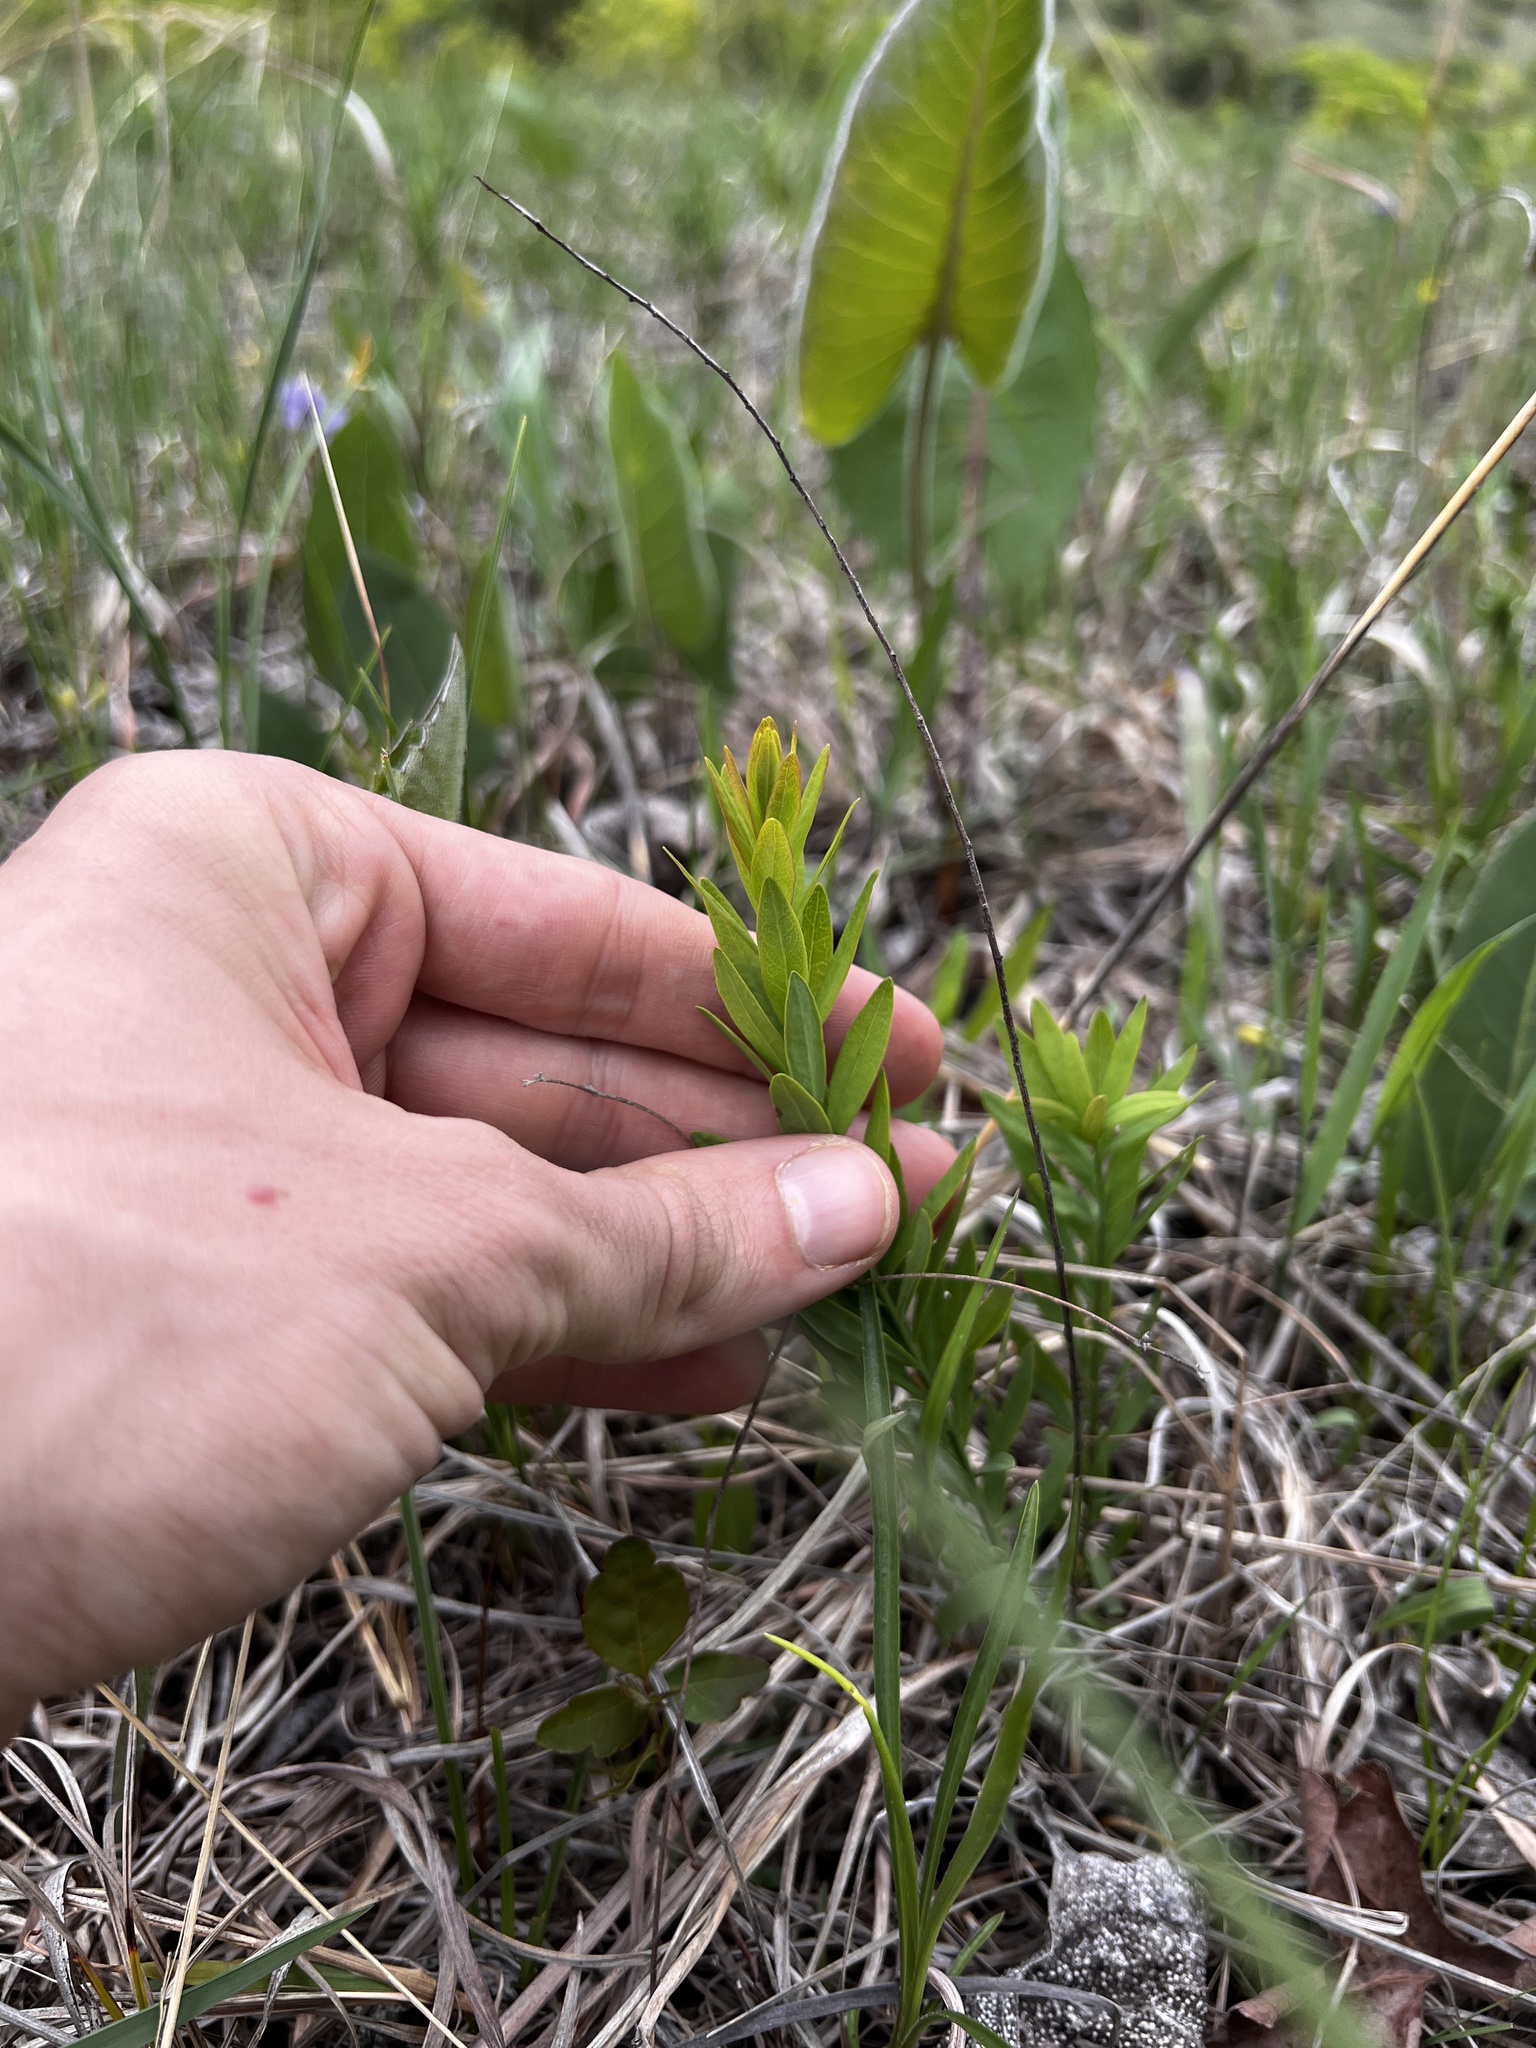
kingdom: Plantae
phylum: Tracheophyta
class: Magnoliopsida
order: Santalales
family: Comandraceae
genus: Comandra
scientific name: Comandra umbellata
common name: Bastard toadflax
